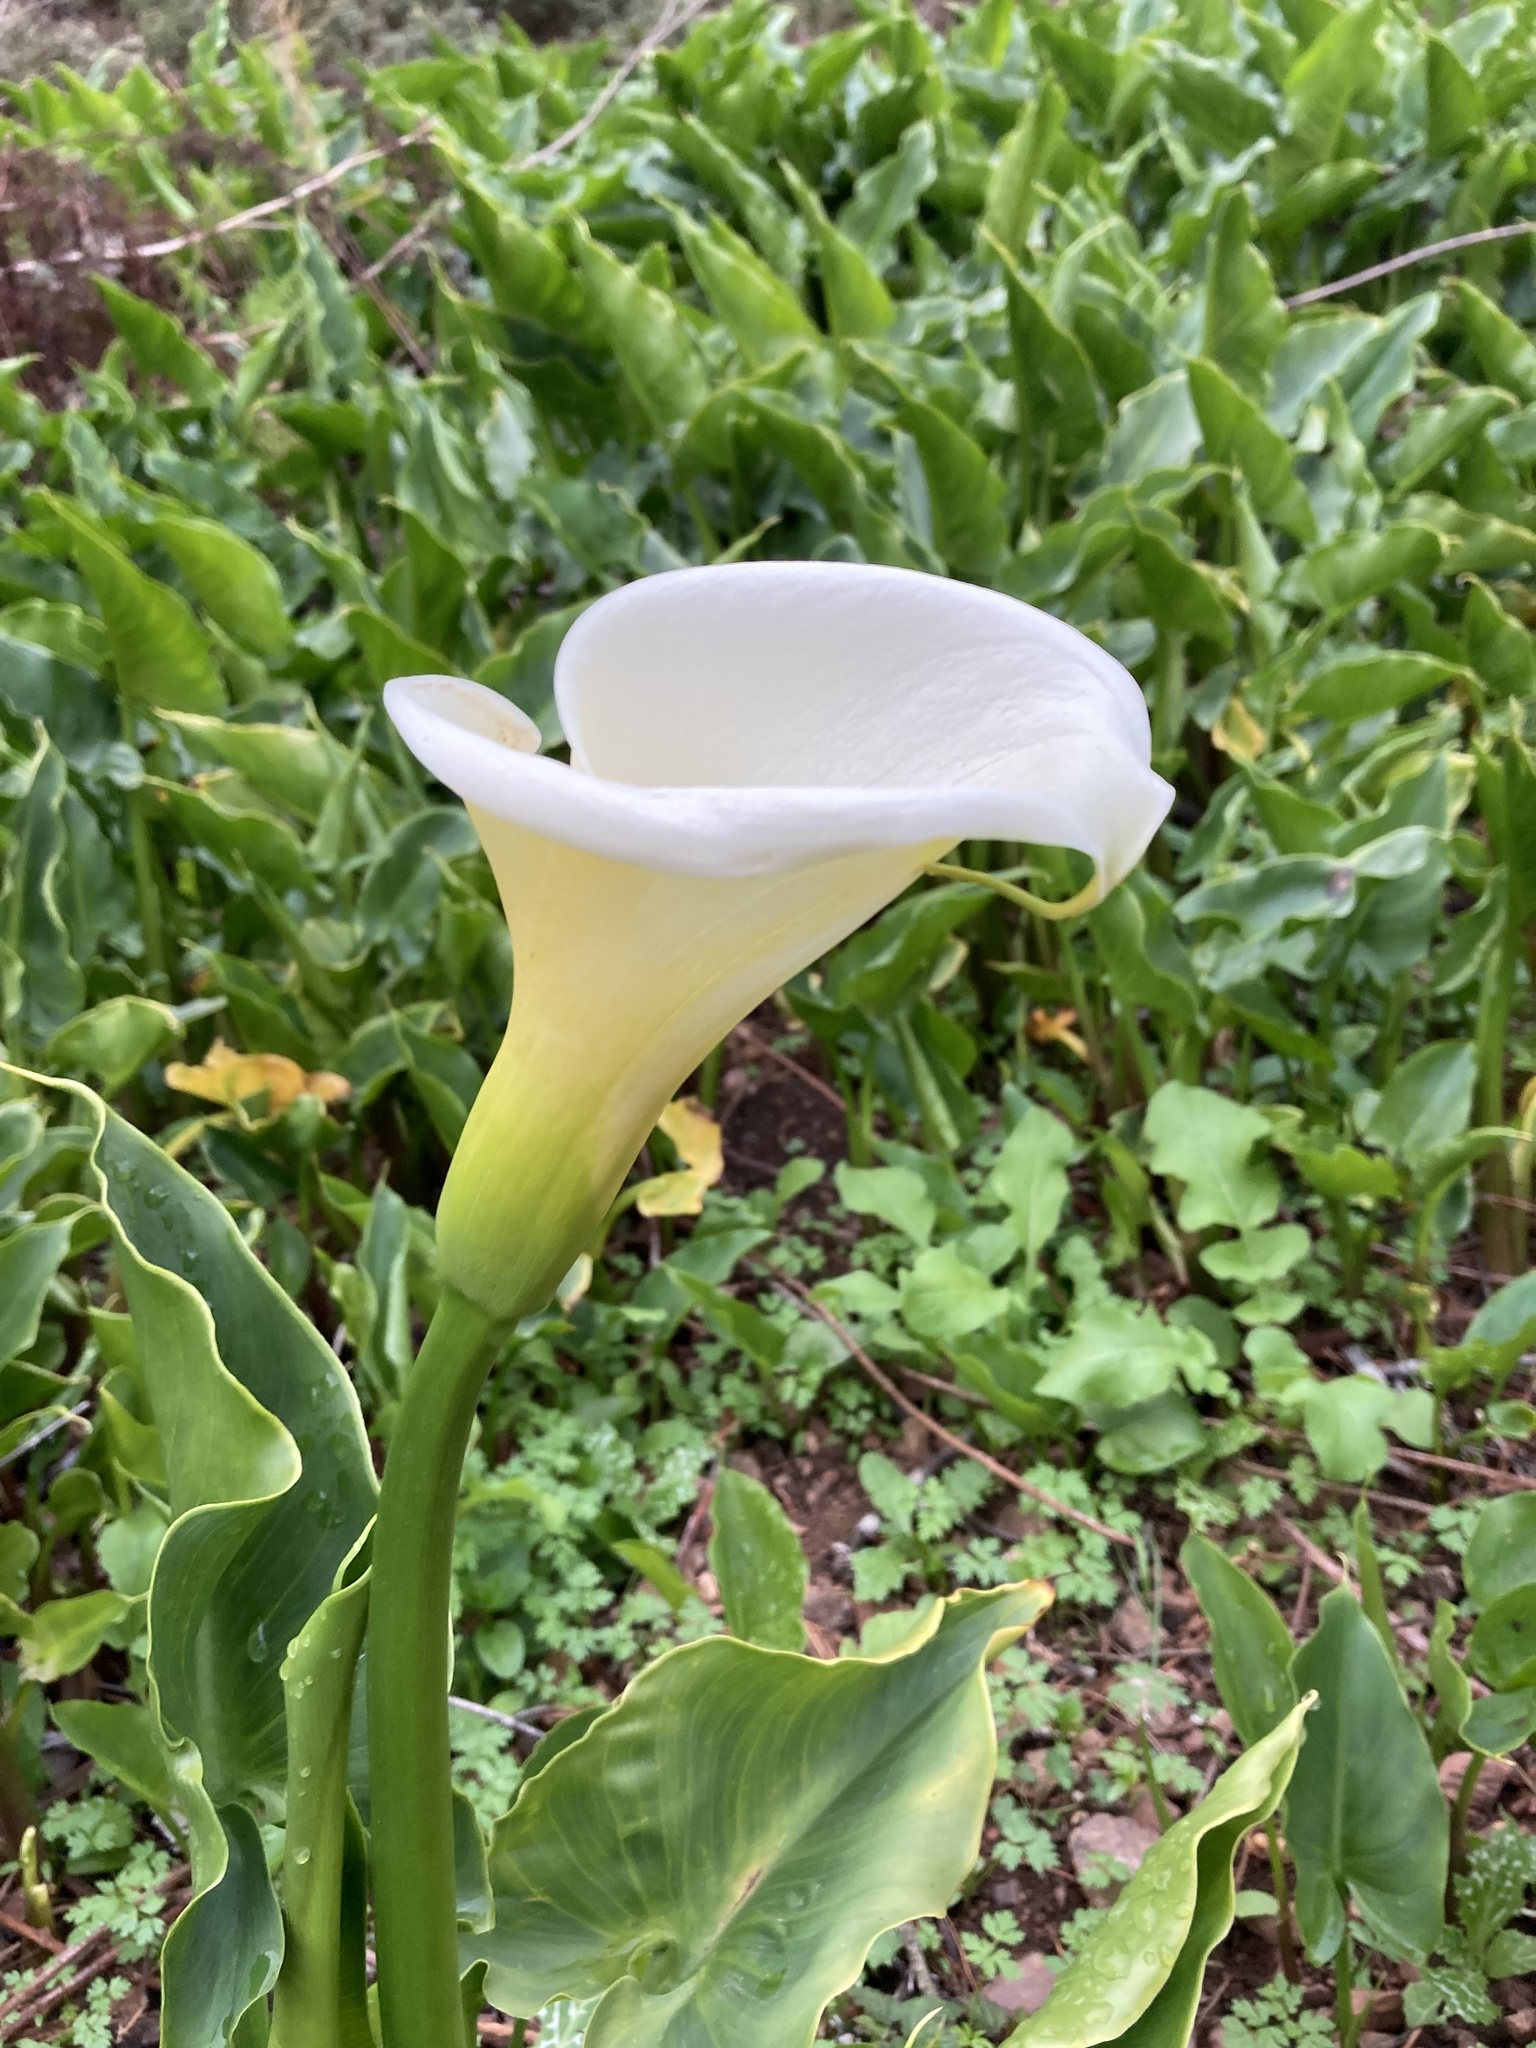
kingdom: Plantae
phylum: Tracheophyta
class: Liliopsida
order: Alismatales
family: Araceae
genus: Zantedeschia
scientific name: Zantedeschia aethiopica
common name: Altar-lily
